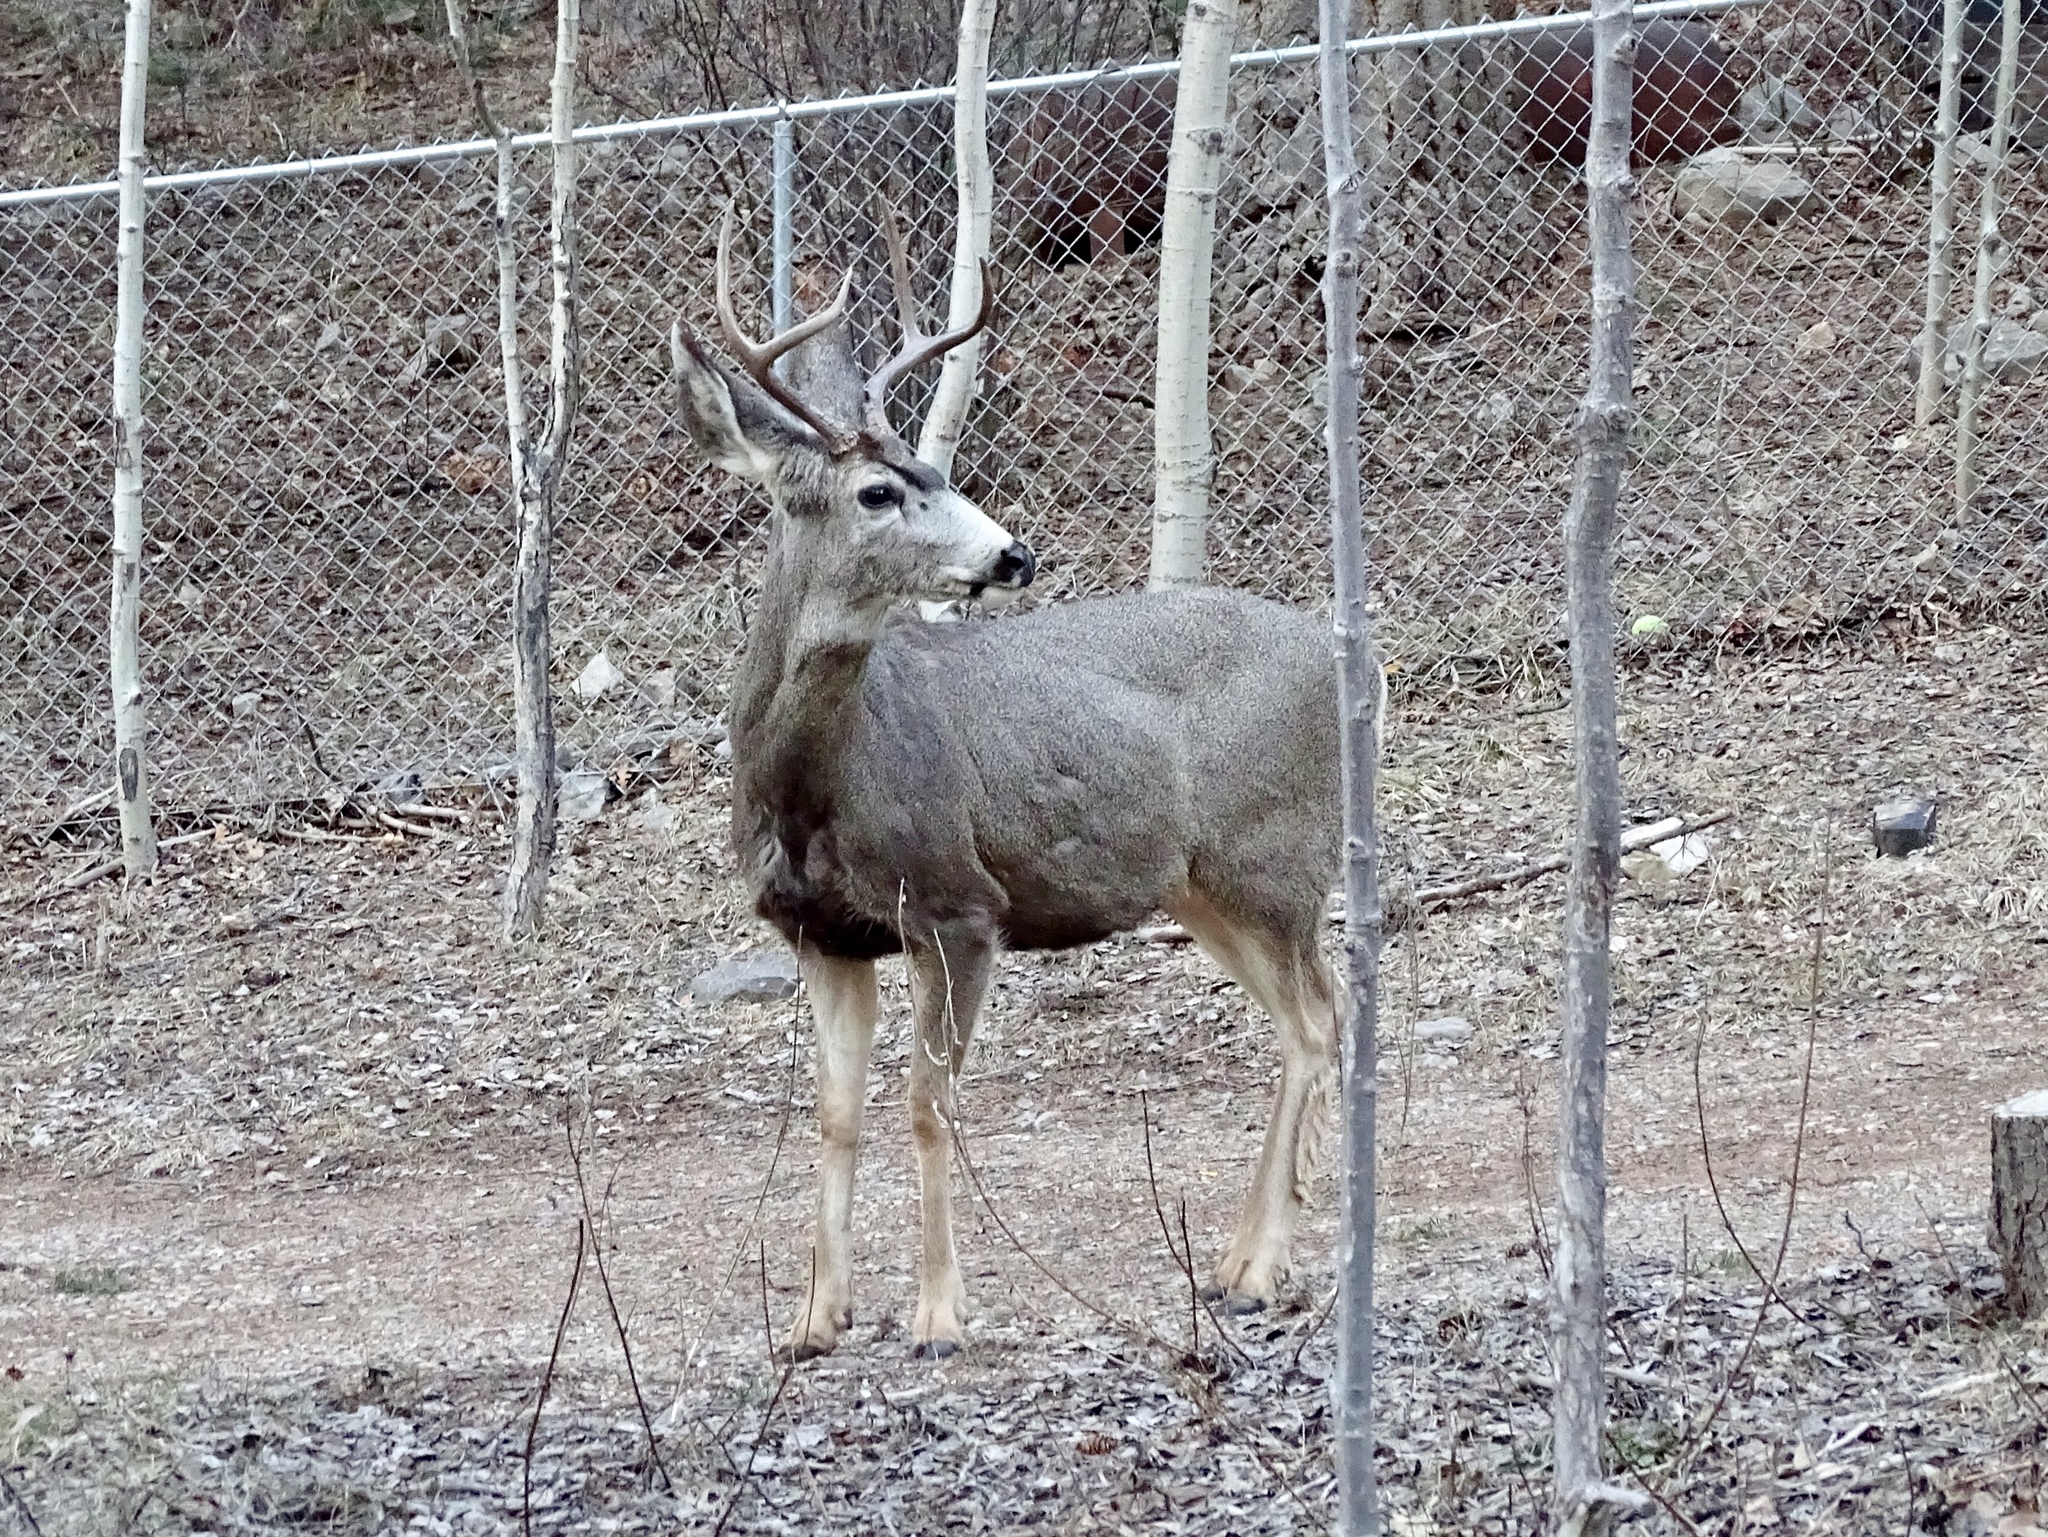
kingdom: Animalia
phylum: Chordata
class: Mammalia
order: Artiodactyla
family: Cervidae
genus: Odocoileus
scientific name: Odocoileus hemionus
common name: Mule deer
